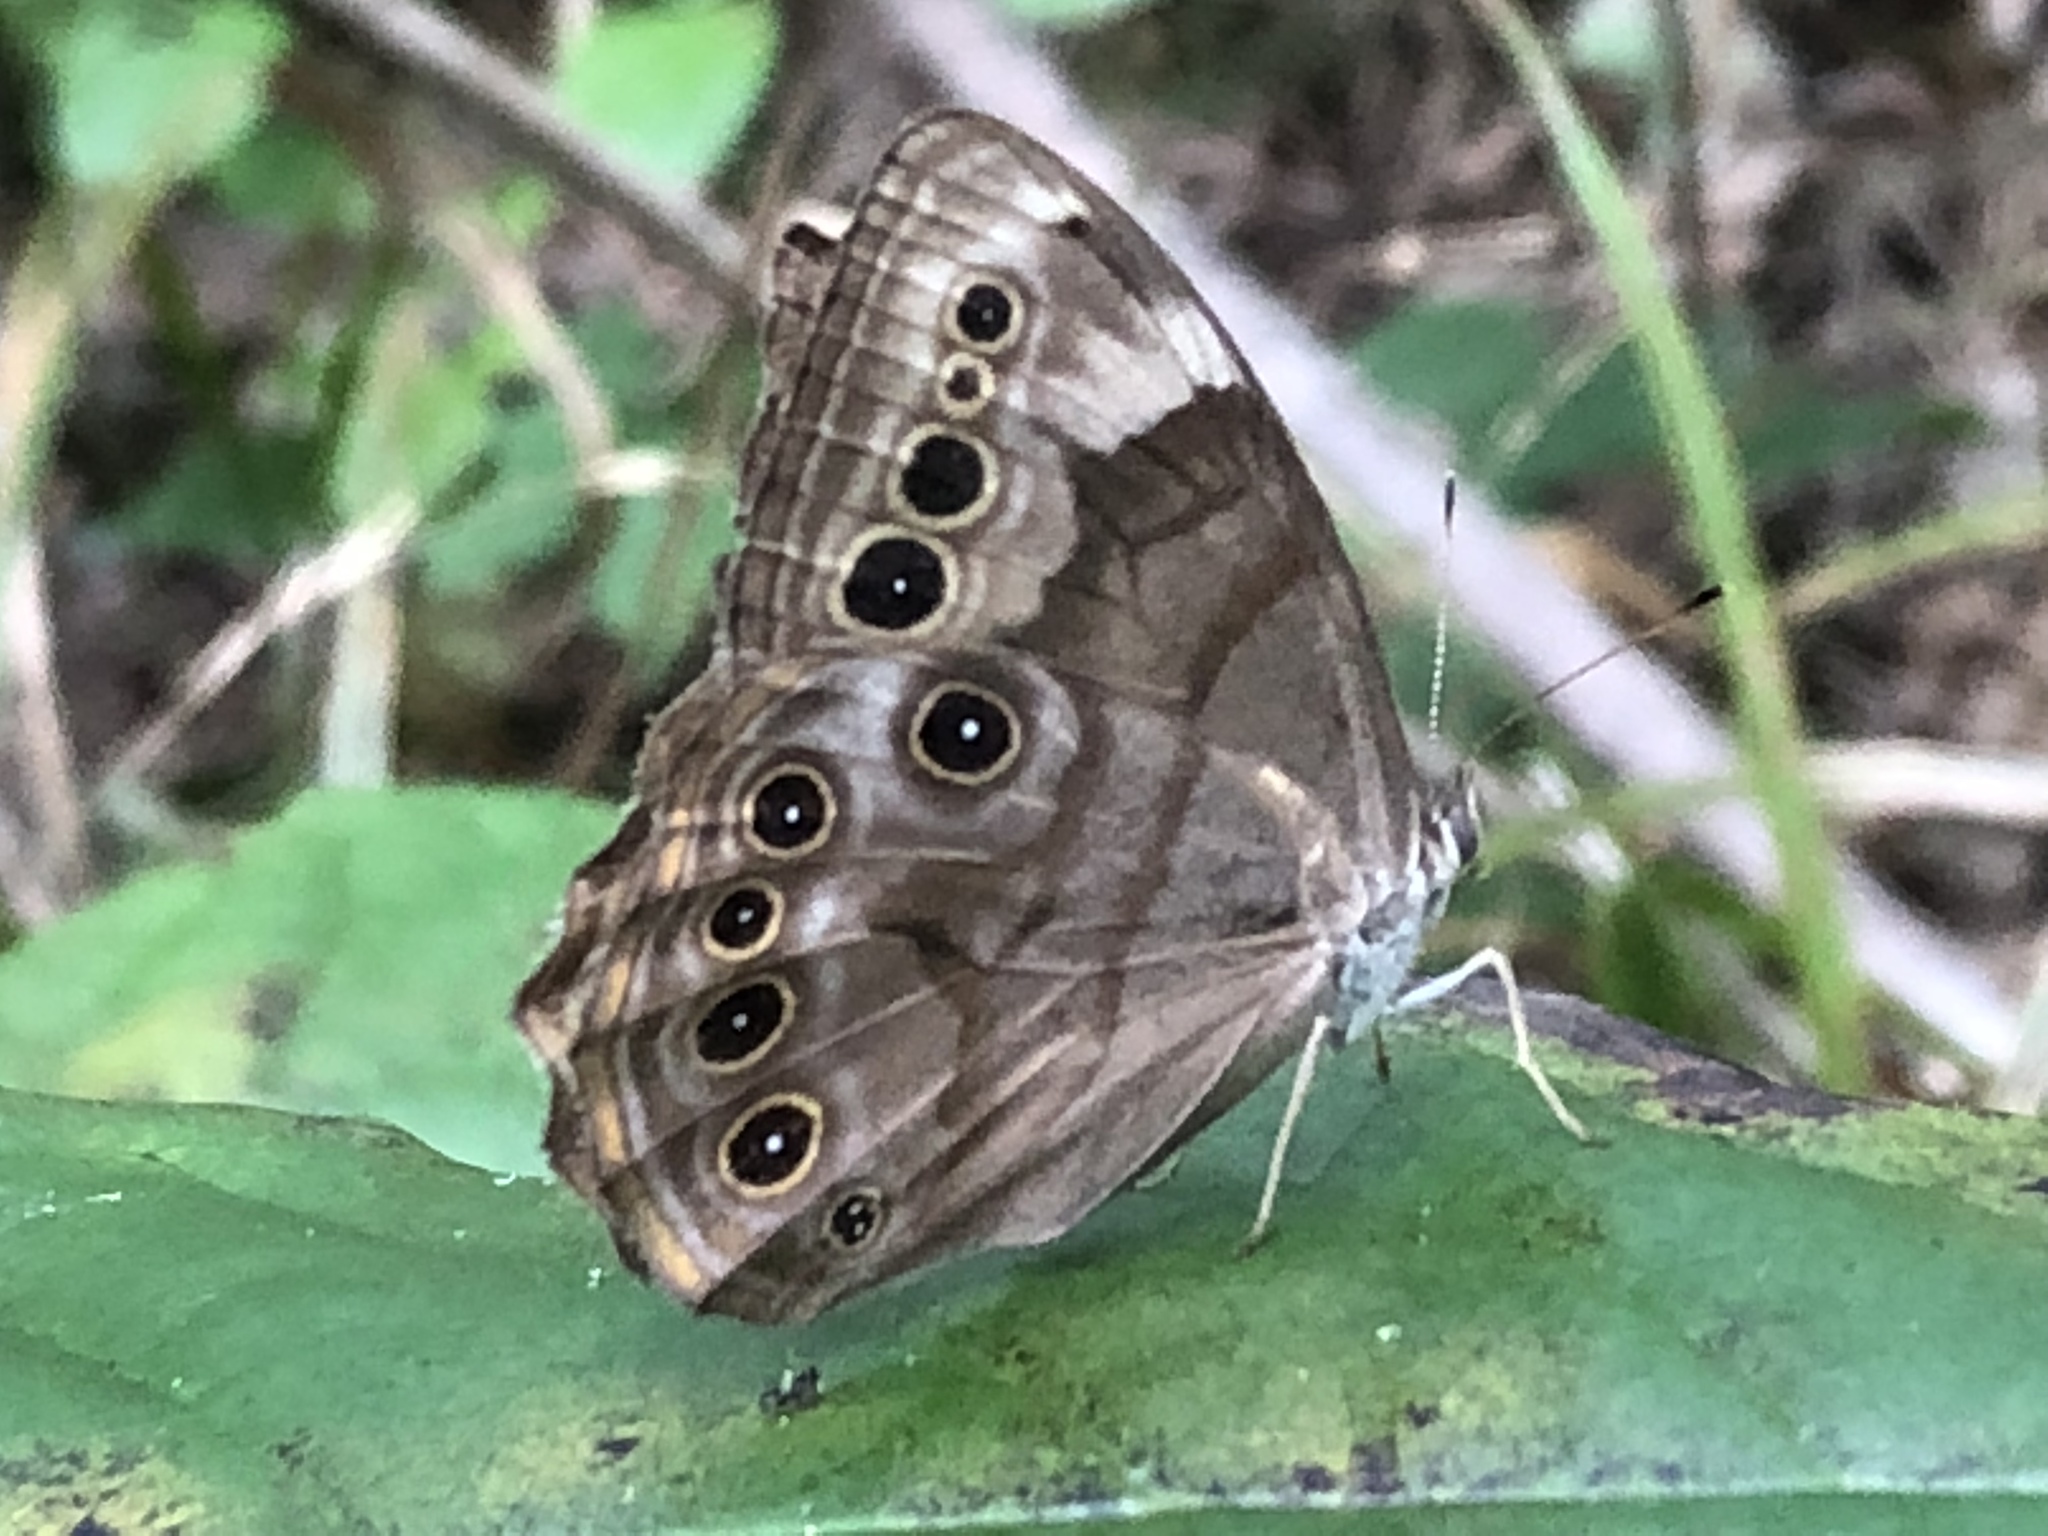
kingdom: Animalia
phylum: Arthropoda
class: Insecta
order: Lepidoptera
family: Nymphalidae
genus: Lethe
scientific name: Lethe anthedon
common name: Northern pearly-eye
